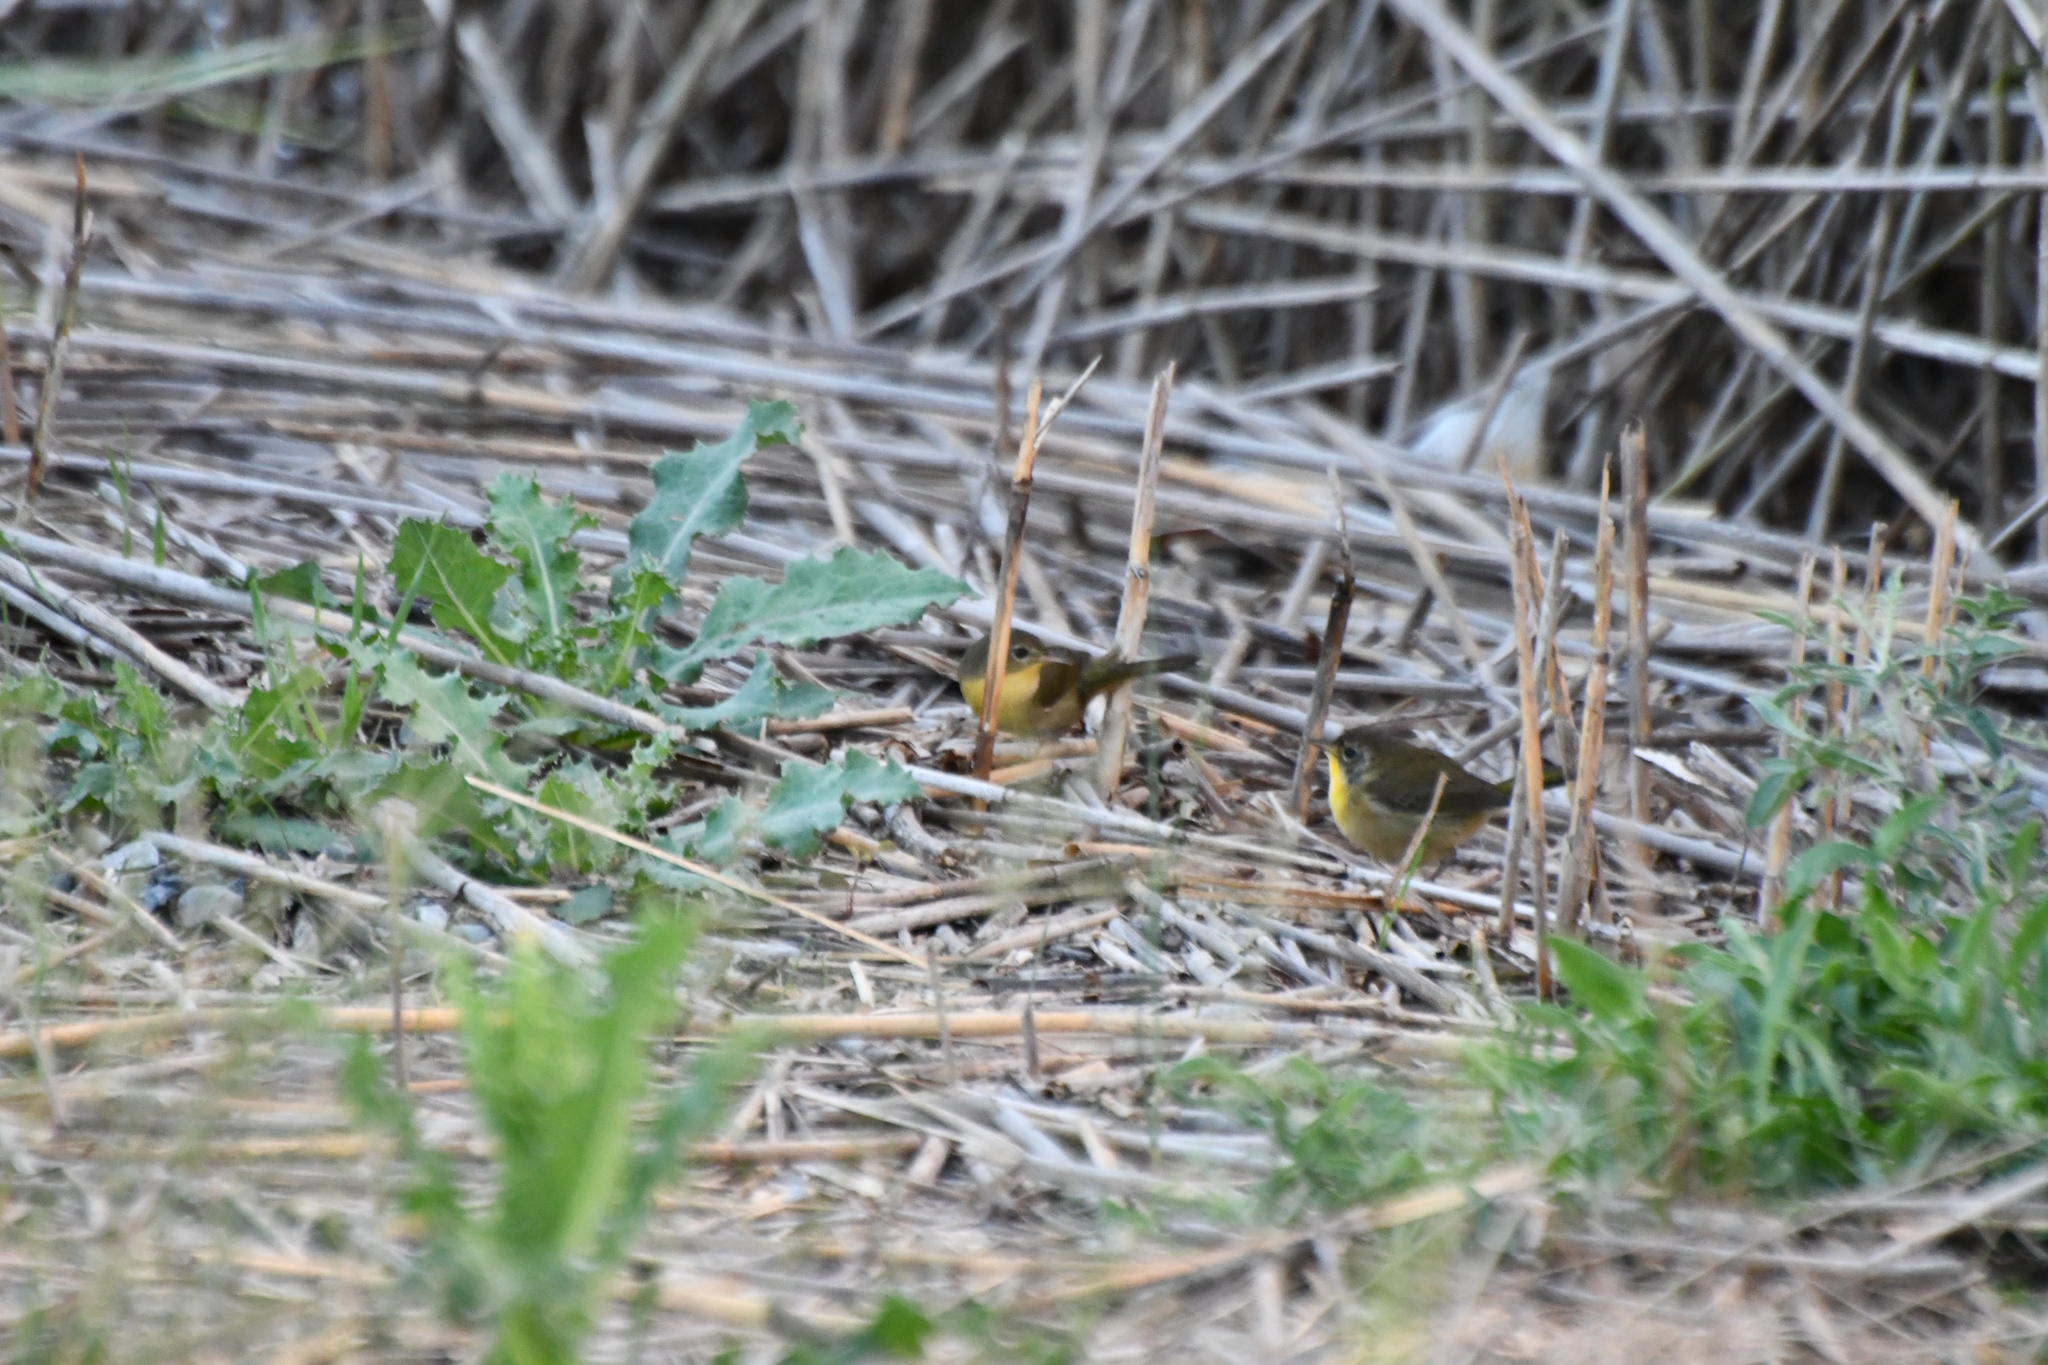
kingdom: Animalia
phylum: Chordata
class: Aves
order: Passeriformes
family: Parulidae
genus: Geothlypis
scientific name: Geothlypis trichas
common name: Common yellowthroat
